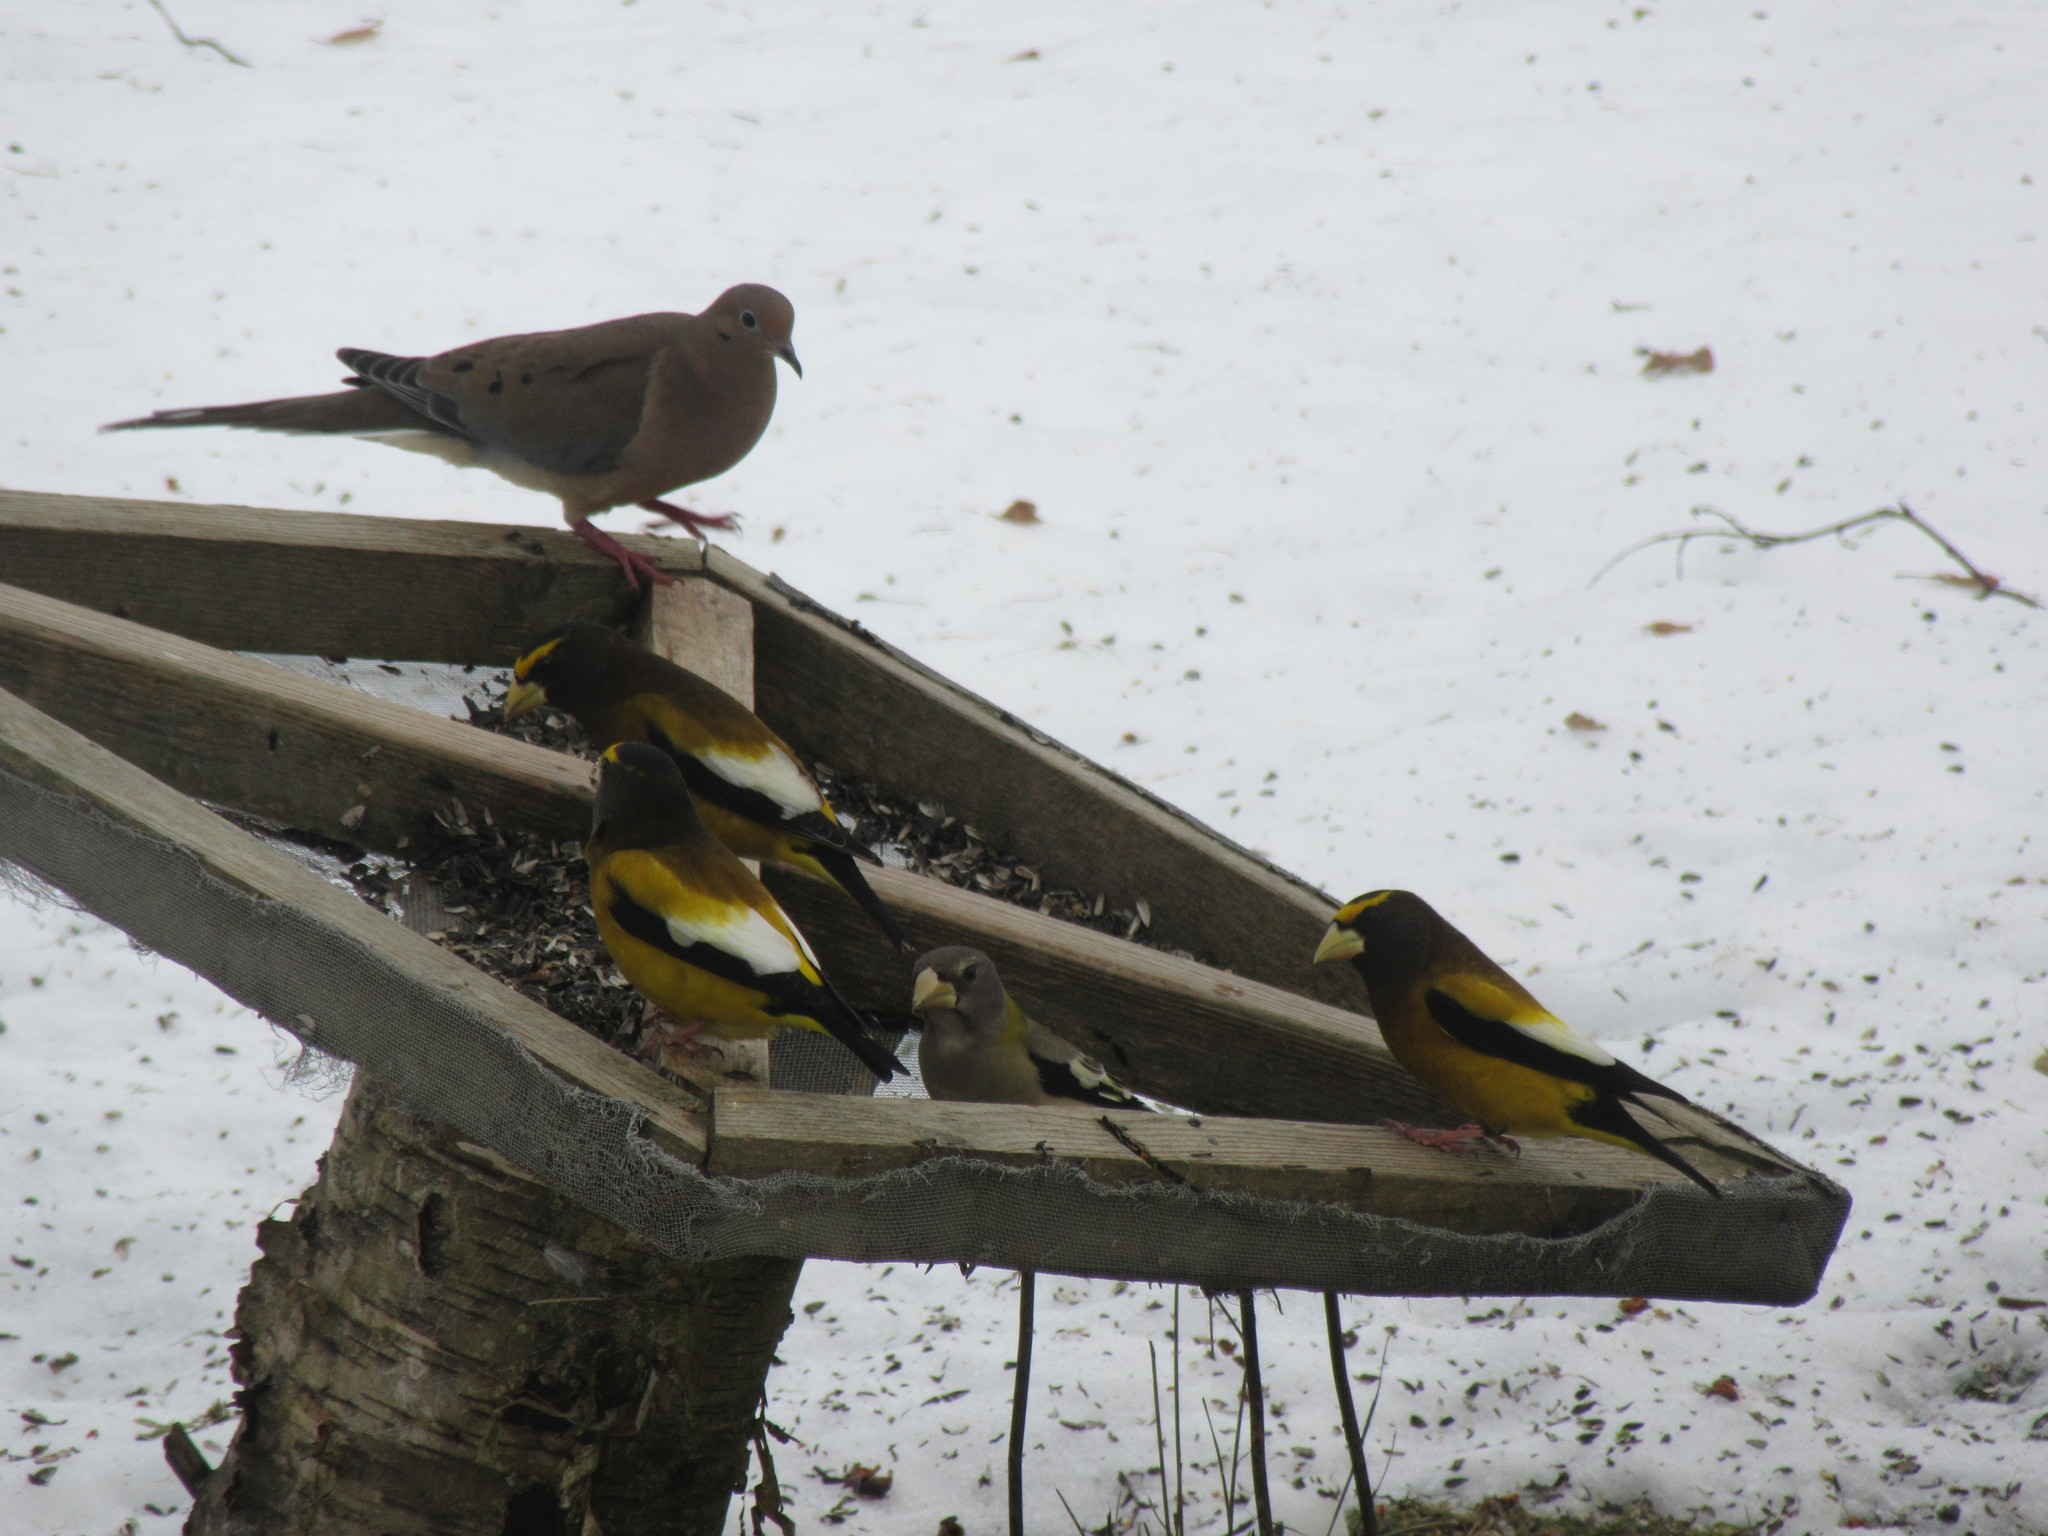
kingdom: Animalia
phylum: Chordata
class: Aves
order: Passeriformes
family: Fringillidae
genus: Hesperiphona
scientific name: Hesperiphona vespertina
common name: Evening grosbeak
